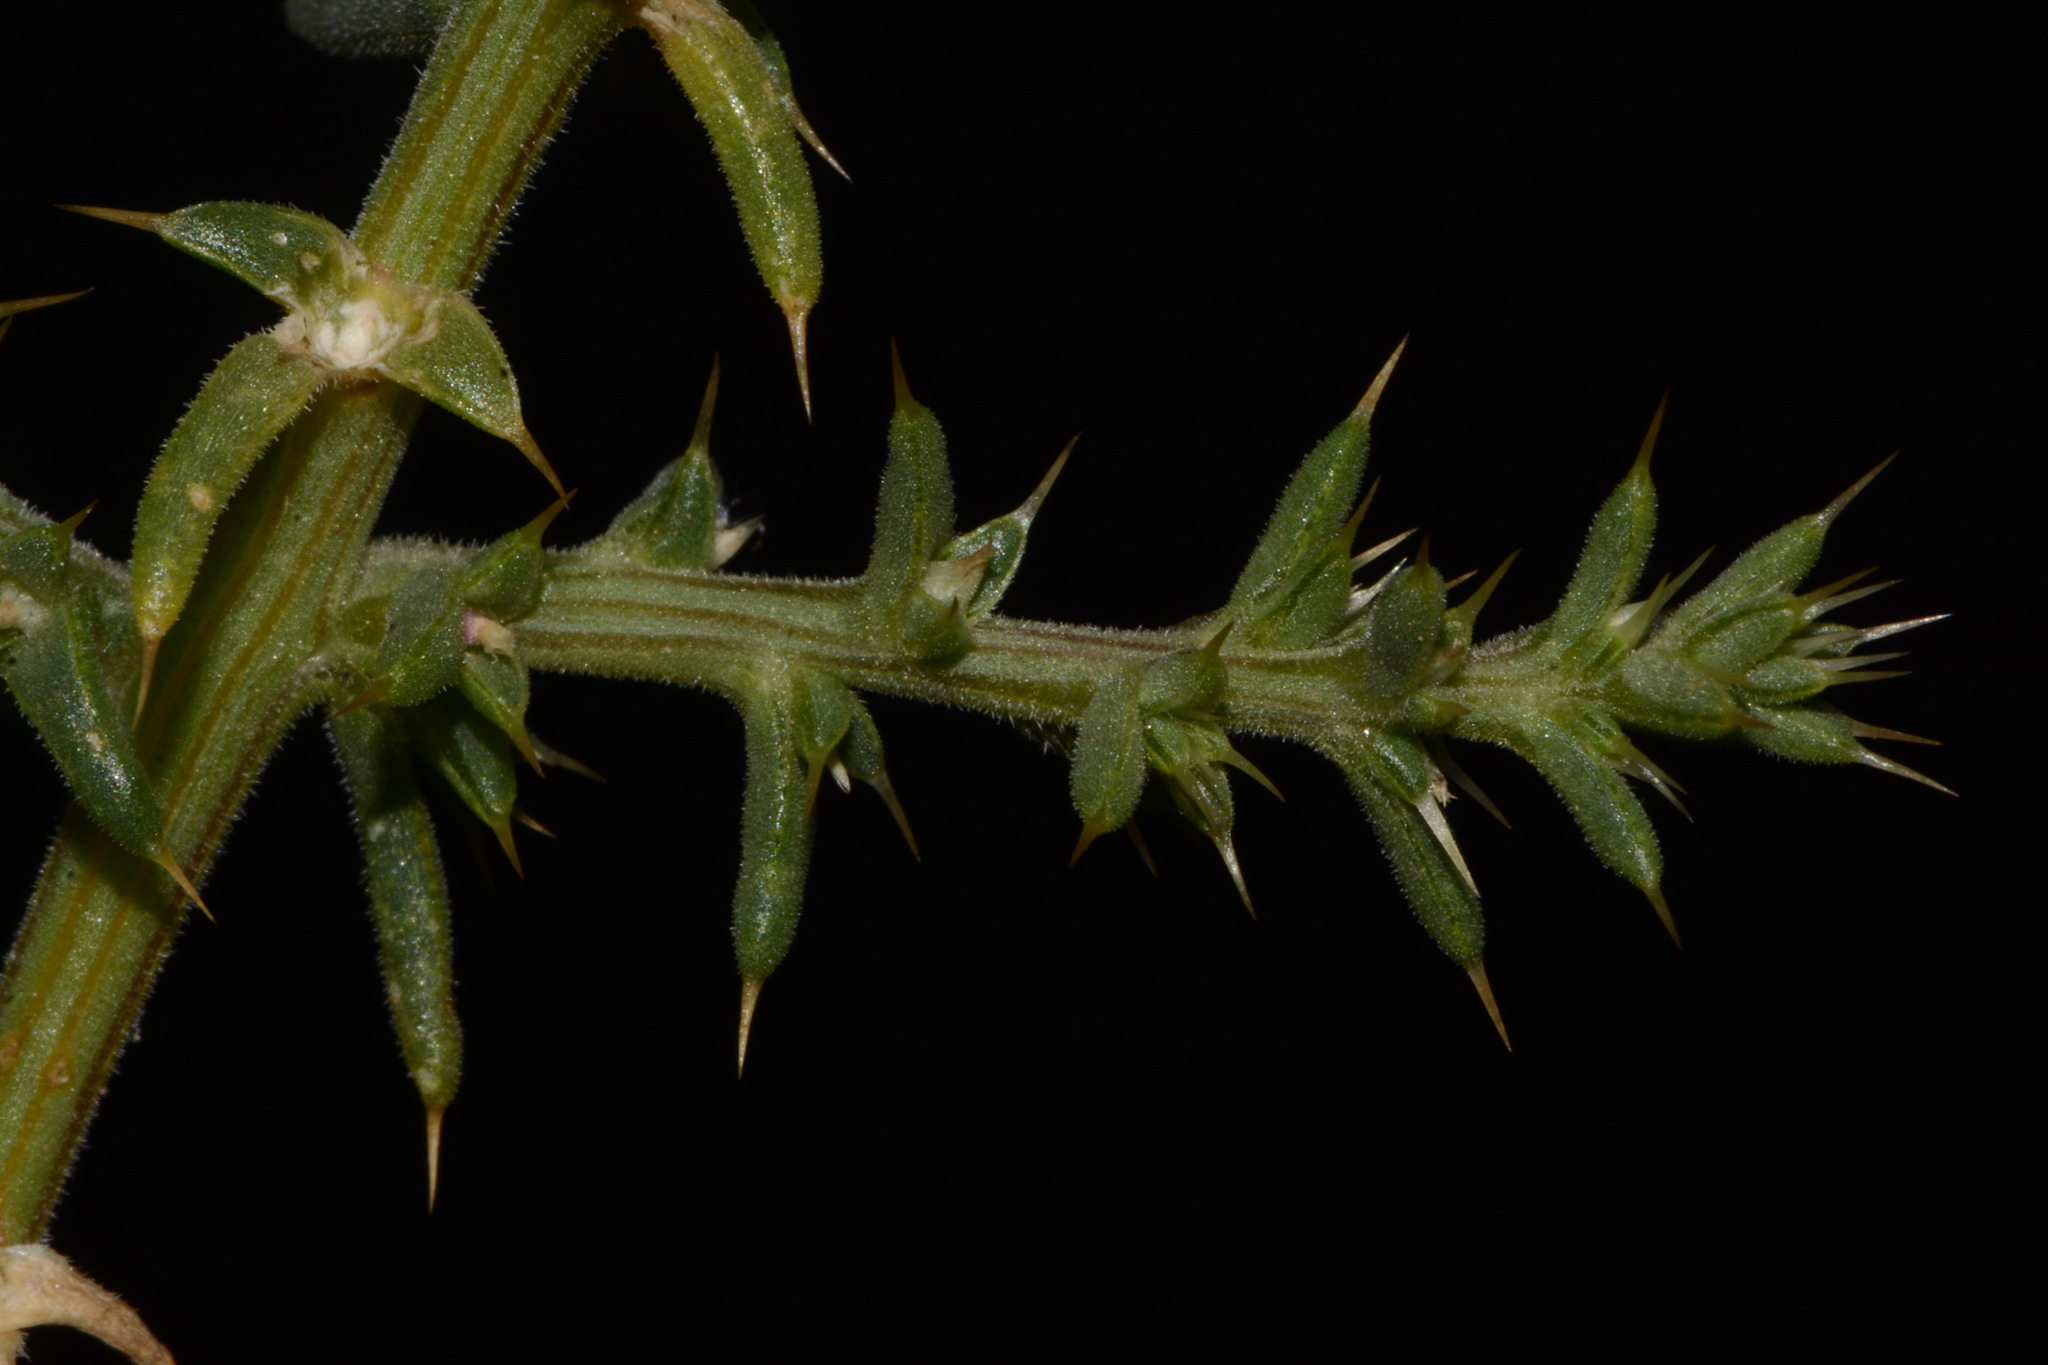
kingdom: Plantae
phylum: Tracheophyta
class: Magnoliopsida
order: Caryophyllales
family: Amaranthaceae
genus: Salsola
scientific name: Salsola tragus
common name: Prickly russian thistle
